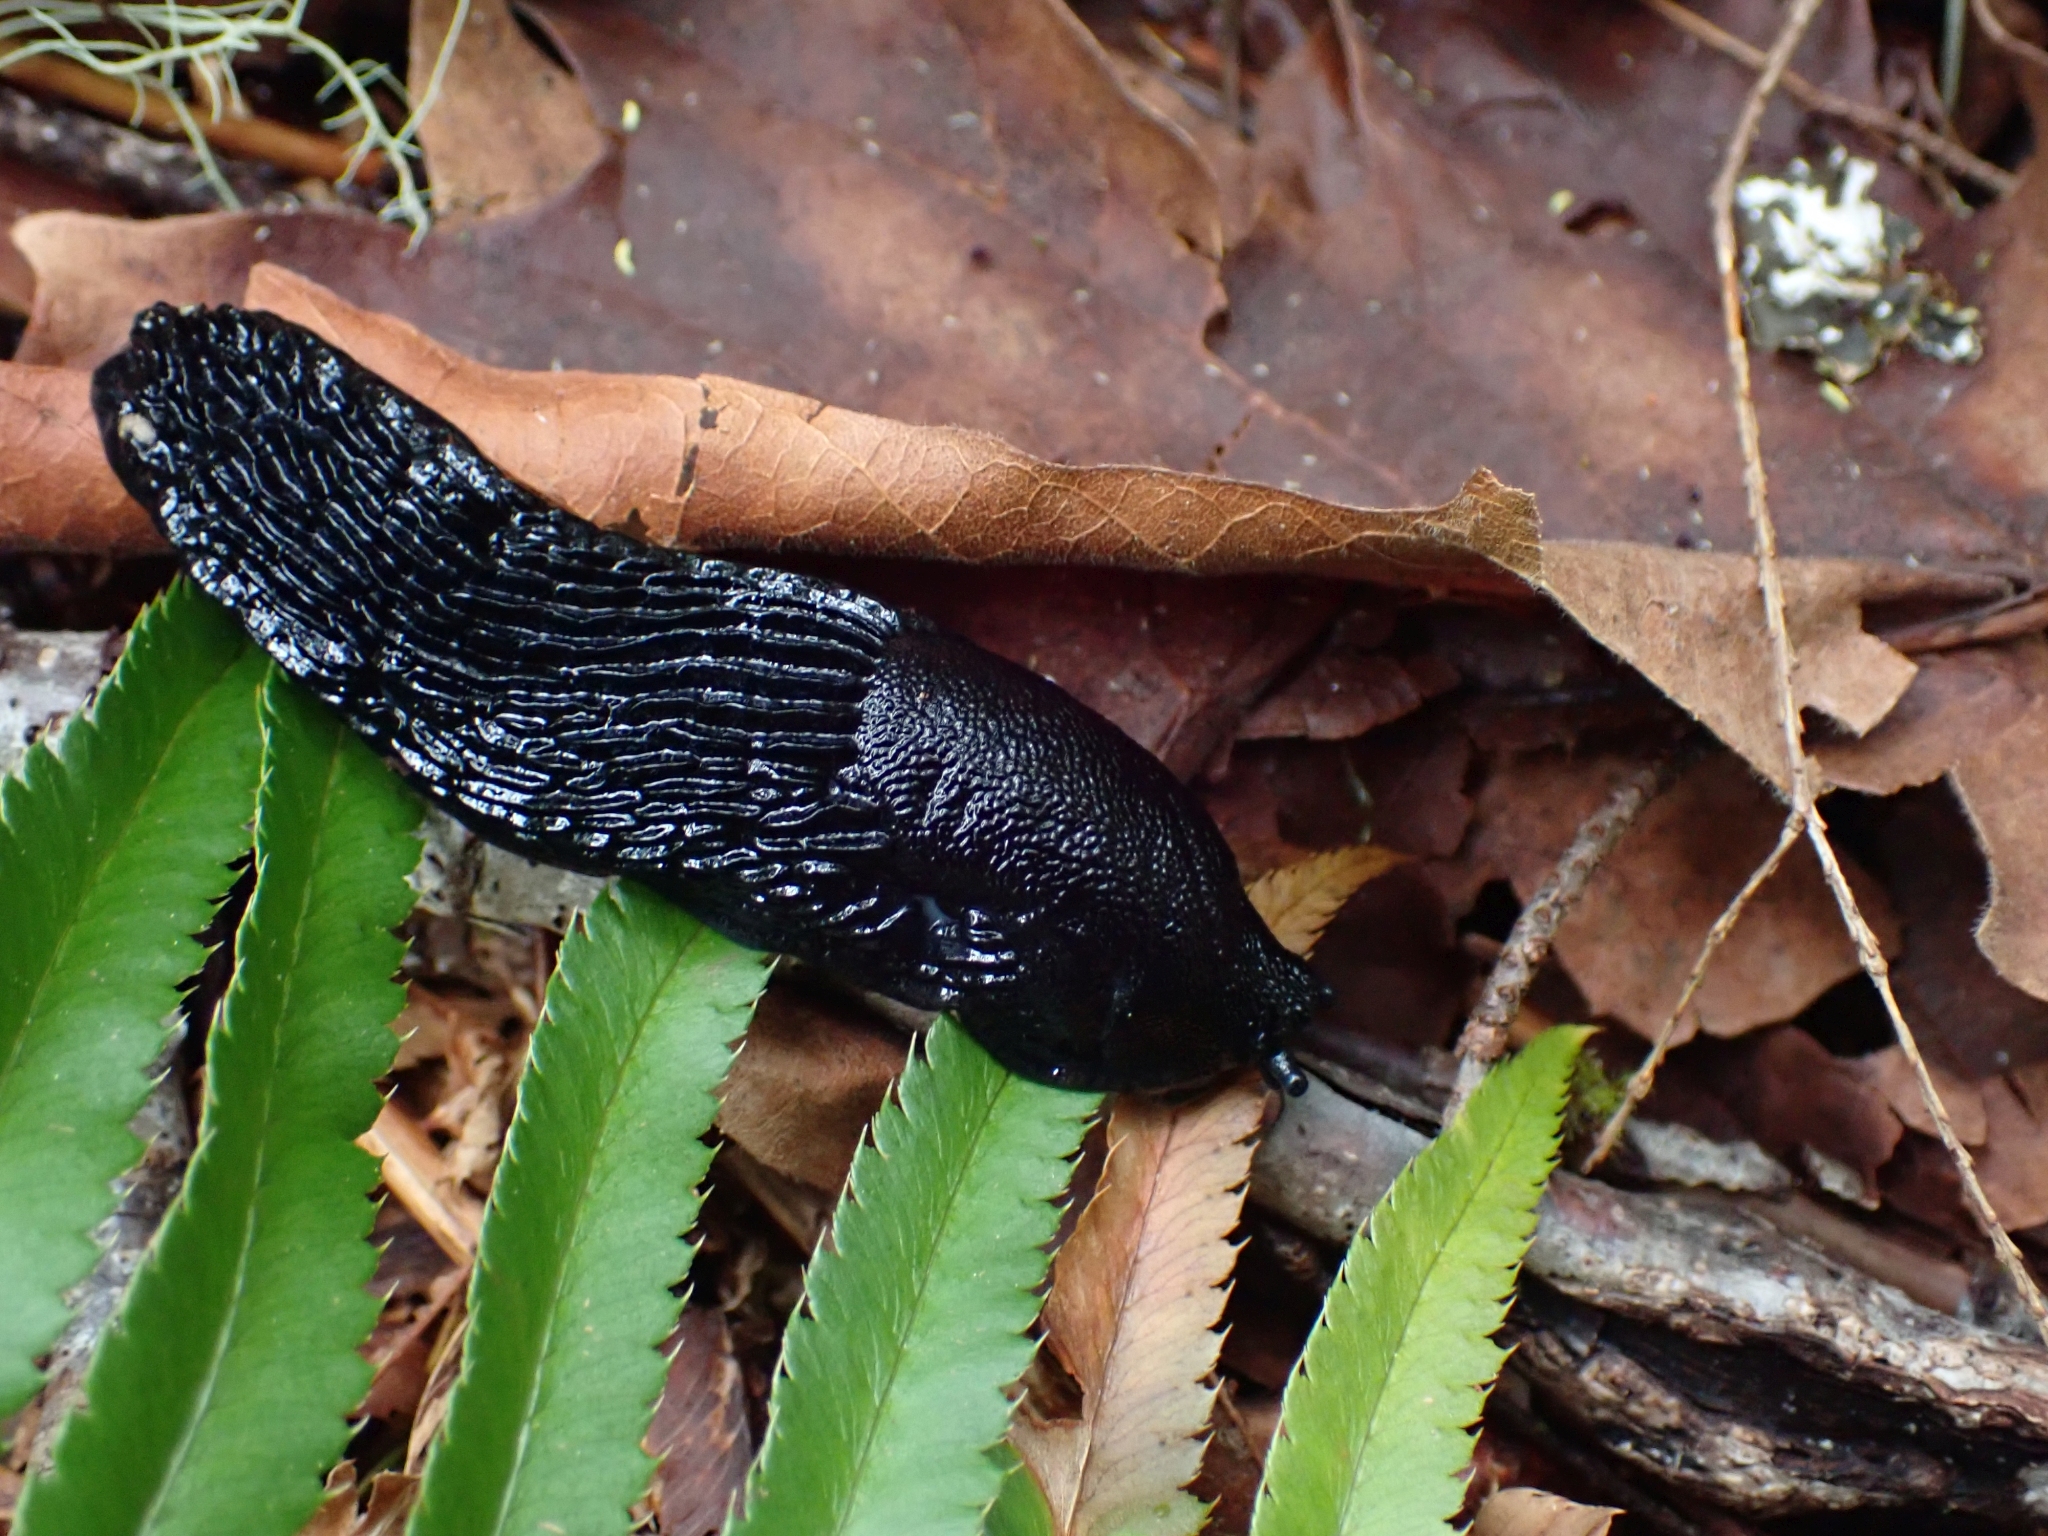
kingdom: Animalia
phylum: Mollusca
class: Gastropoda
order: Stylommatophora
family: Arionidae
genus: Arion
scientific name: Arion
